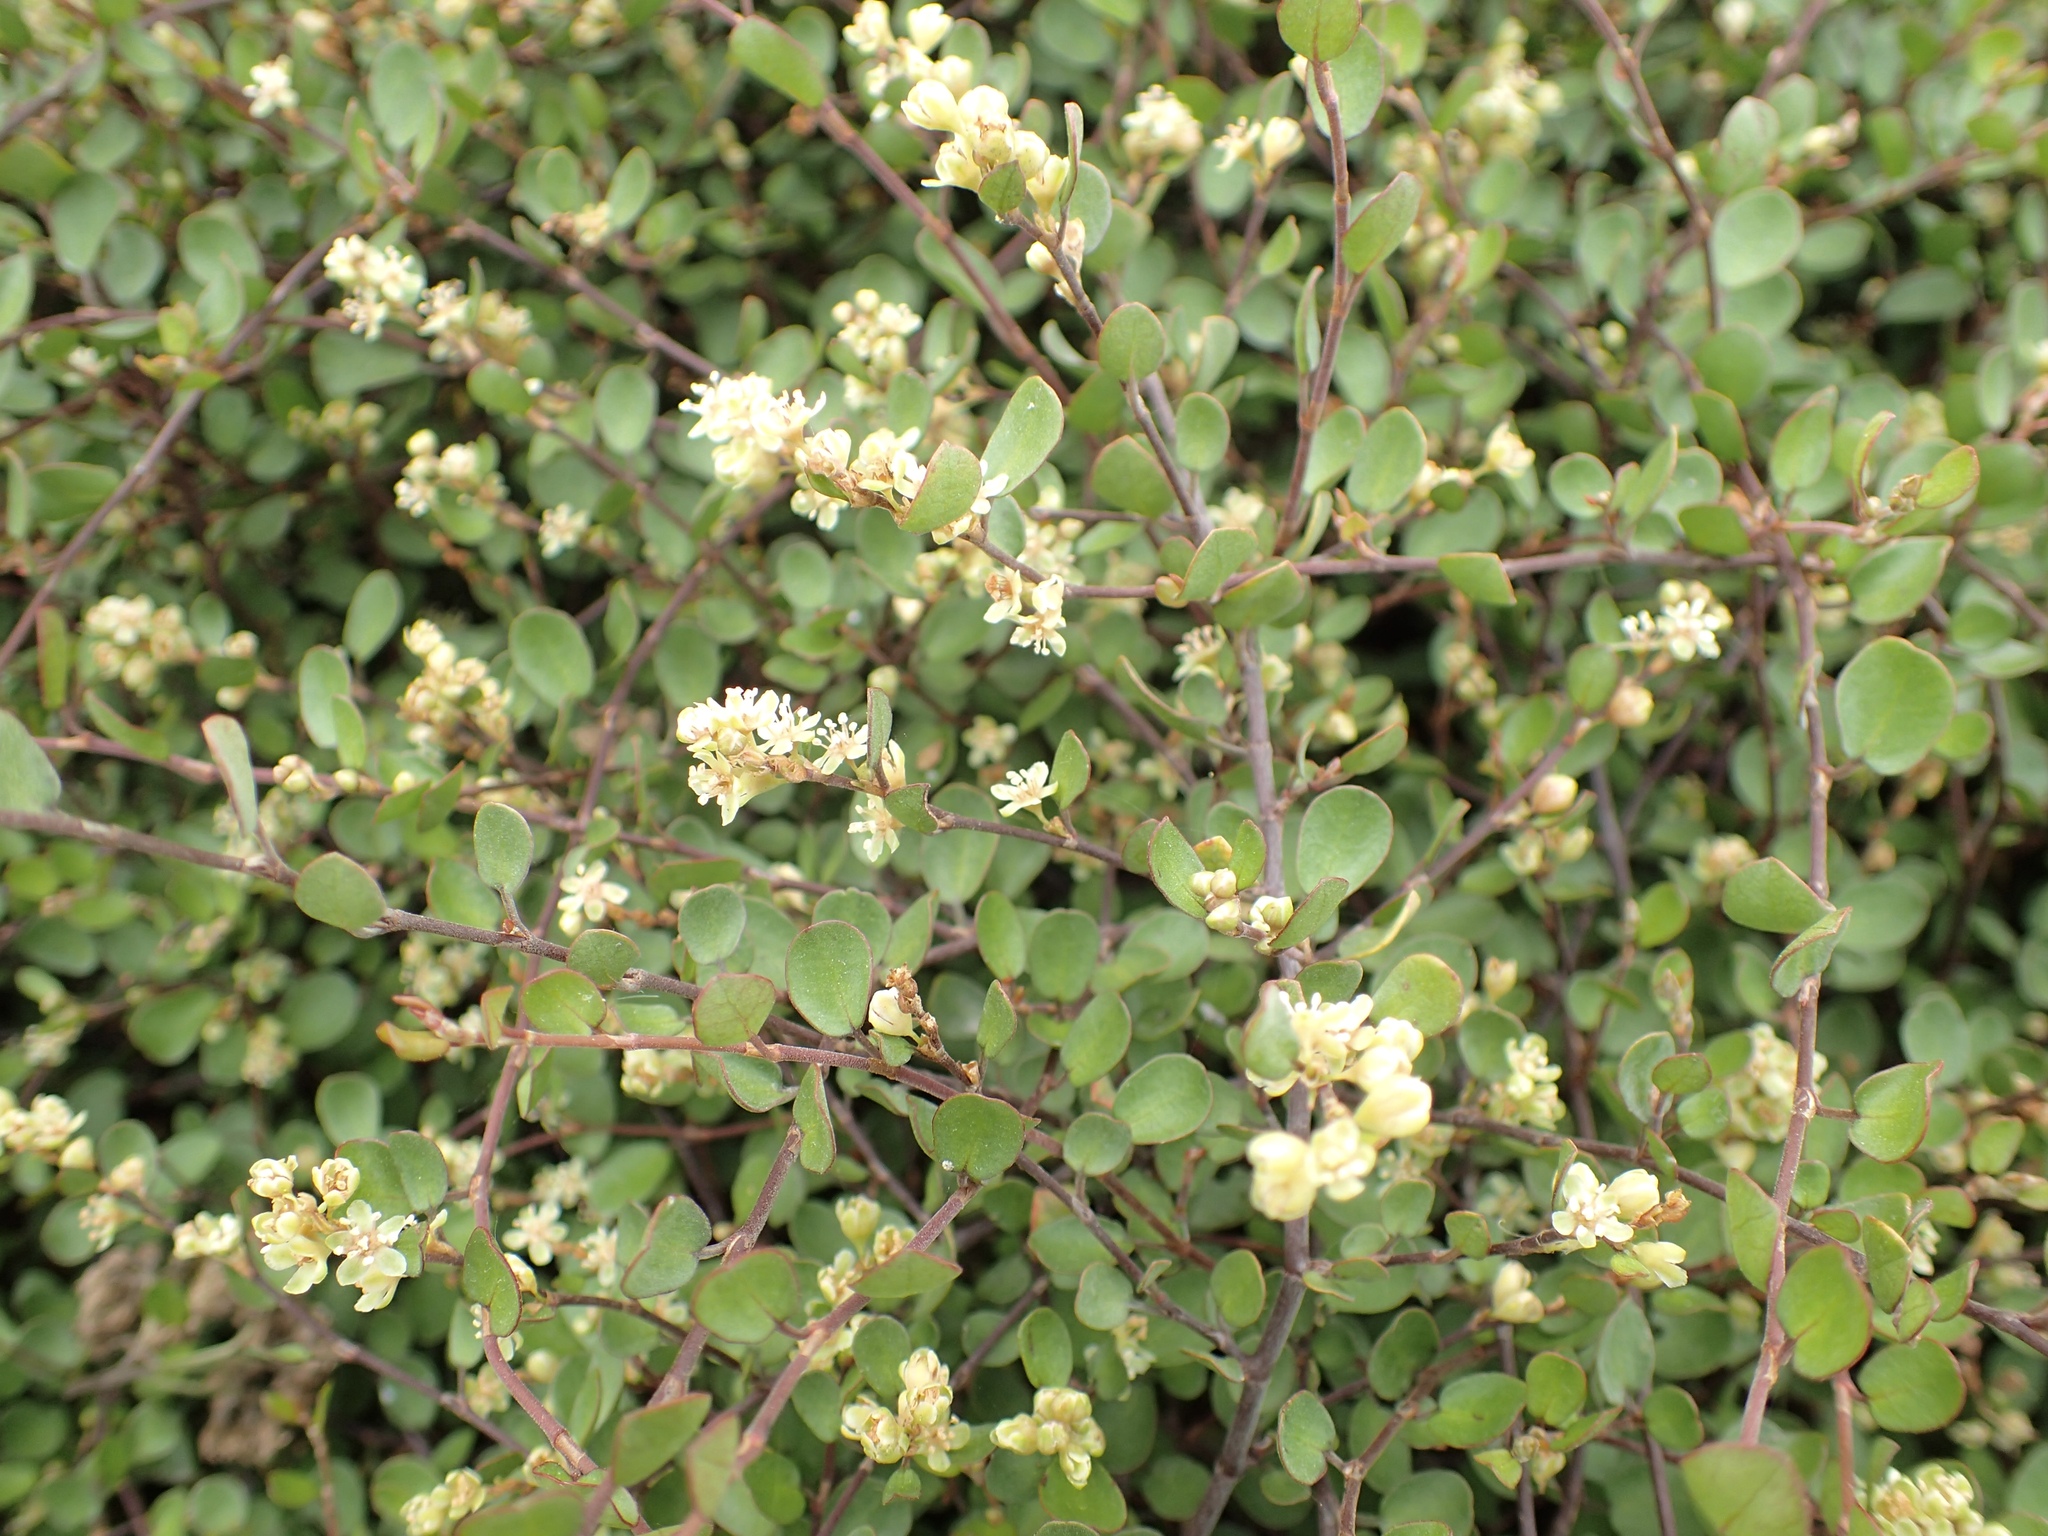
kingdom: Plantae
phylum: Tracheophyta
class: Magnoliopsida
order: Caryophyllales
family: Polygonaceae
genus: Muehlenbeckia
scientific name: Muehlenbeckia complexa
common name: Wireplant
